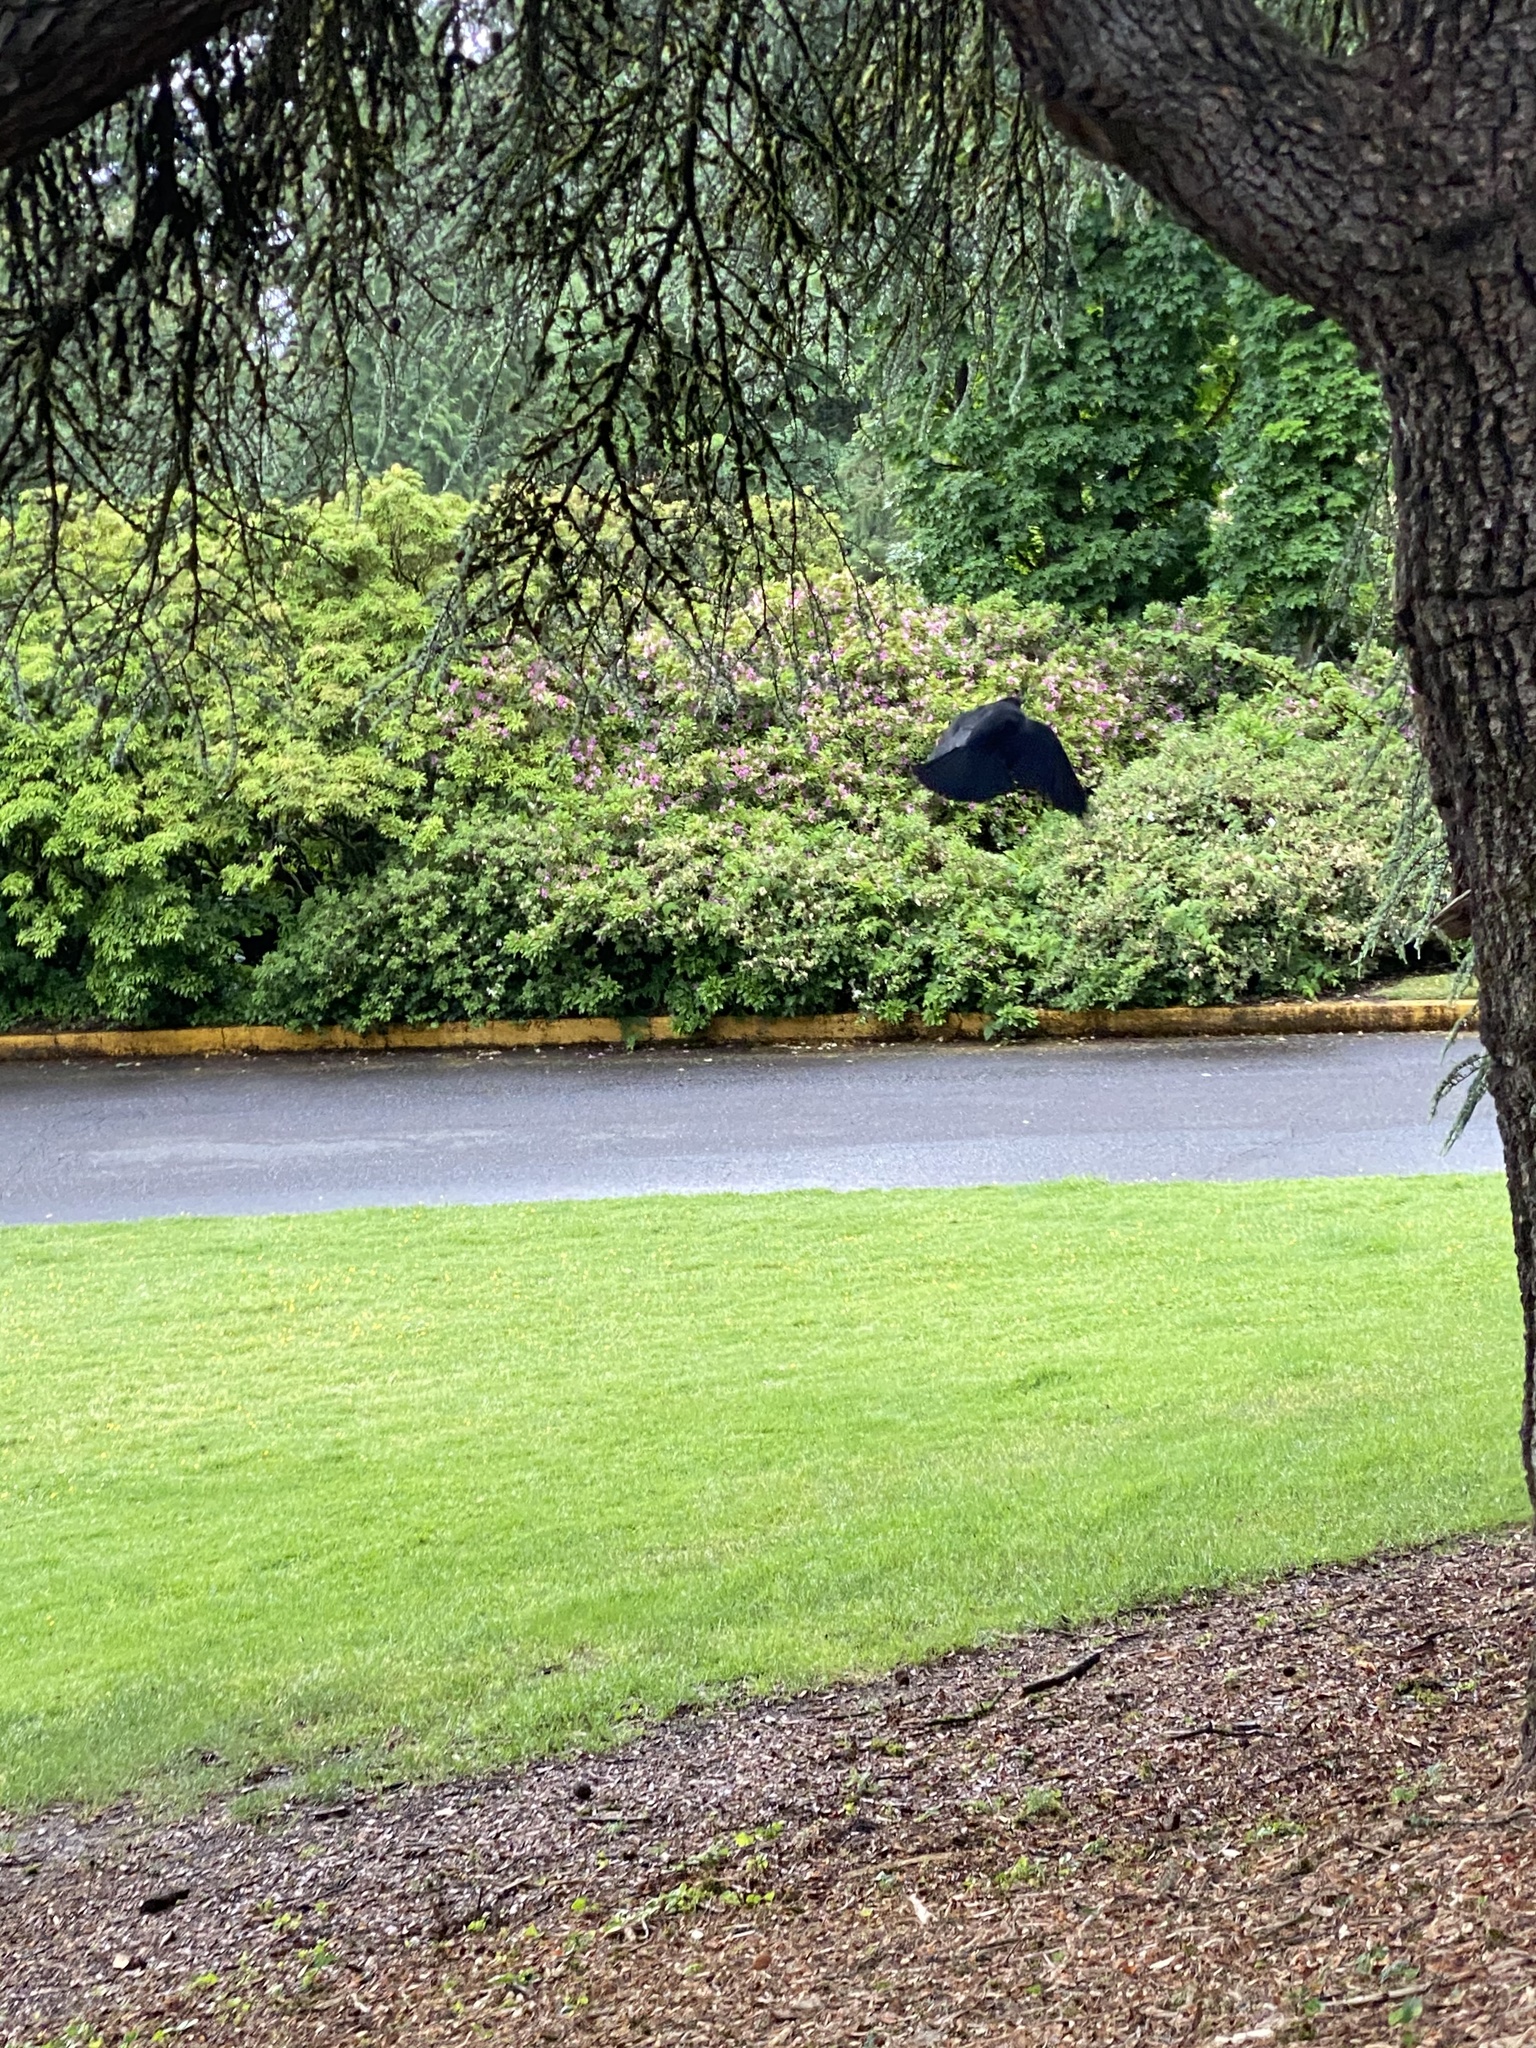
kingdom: Animalia
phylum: Chordata
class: Aves
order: Passeriformes
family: Corvidae
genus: Corvus
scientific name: Corvus brachyrhynchos
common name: American crow
